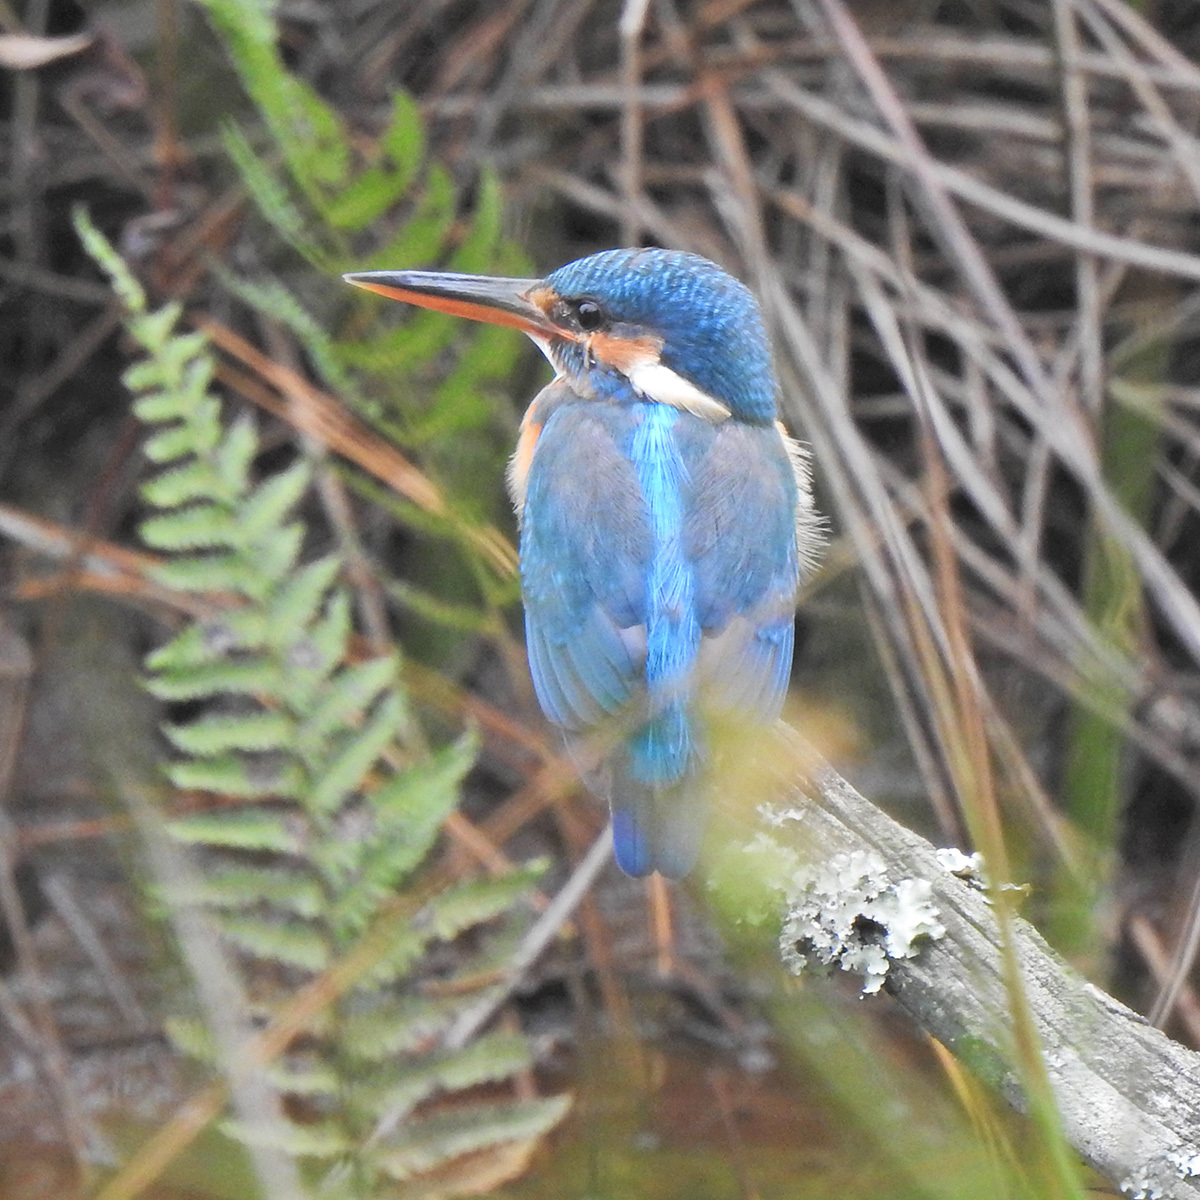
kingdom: Animalia
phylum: Chordata
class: Aves
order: Coraciiformes
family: Alcedinidae
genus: Alcedo
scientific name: Alcedo atthis
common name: Common kingfisher
